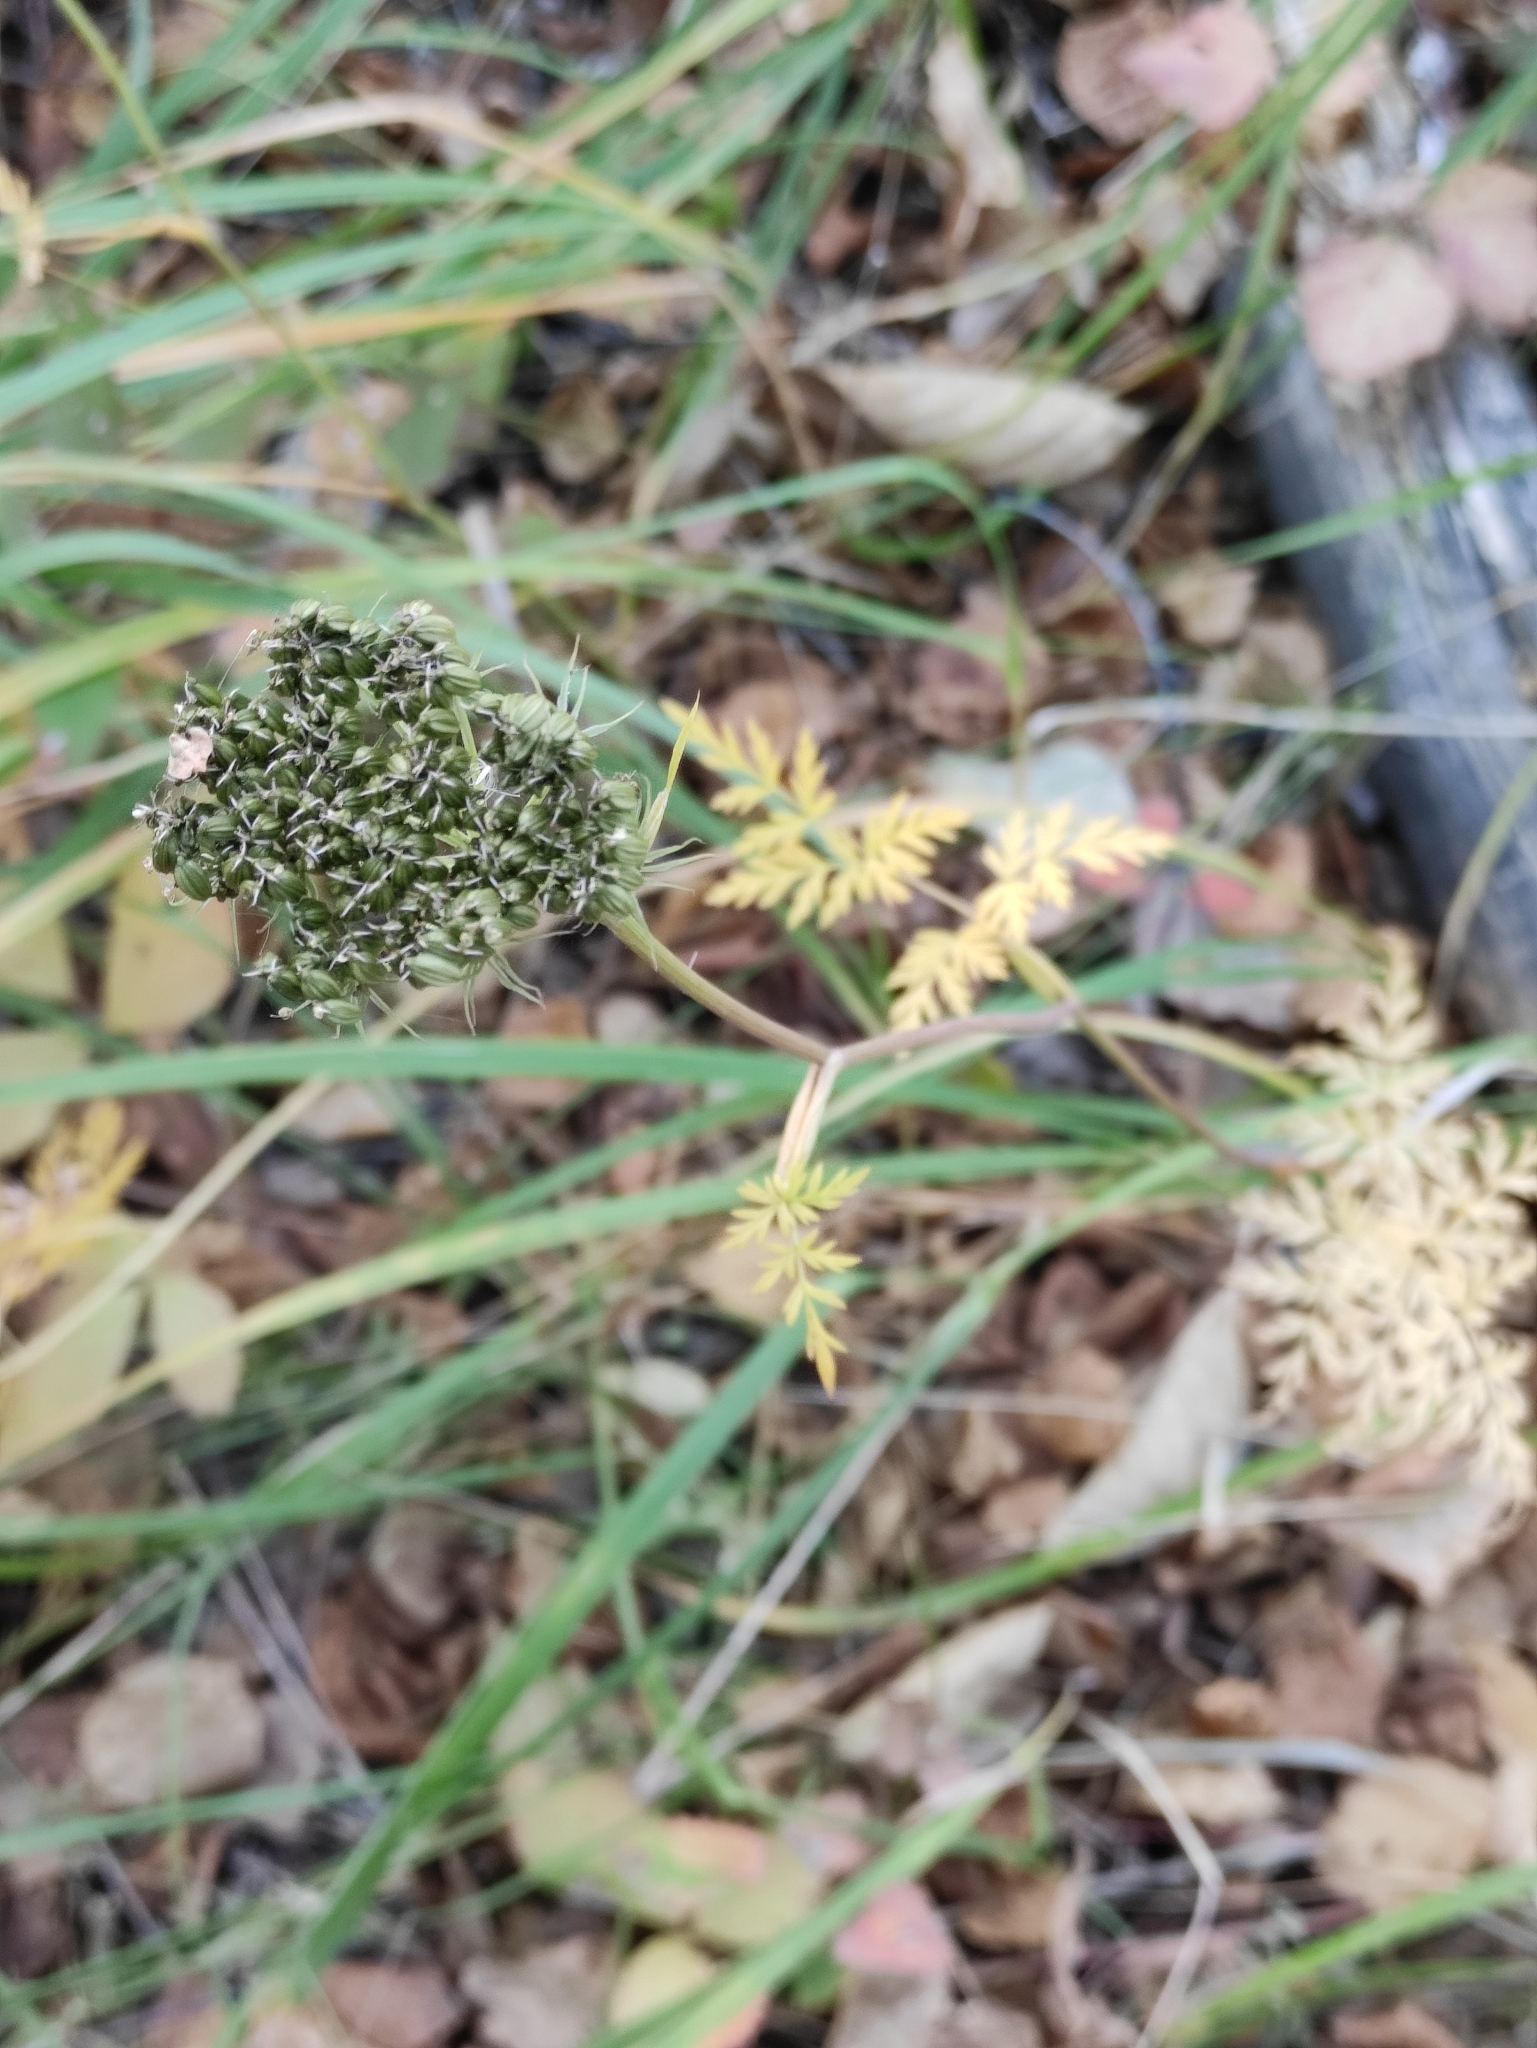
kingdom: Plantae
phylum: Tracheophyta
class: Magnoliopsida
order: Apiales
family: Apiaceae
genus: Conioselinum
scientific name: Conioselinum tataricum
